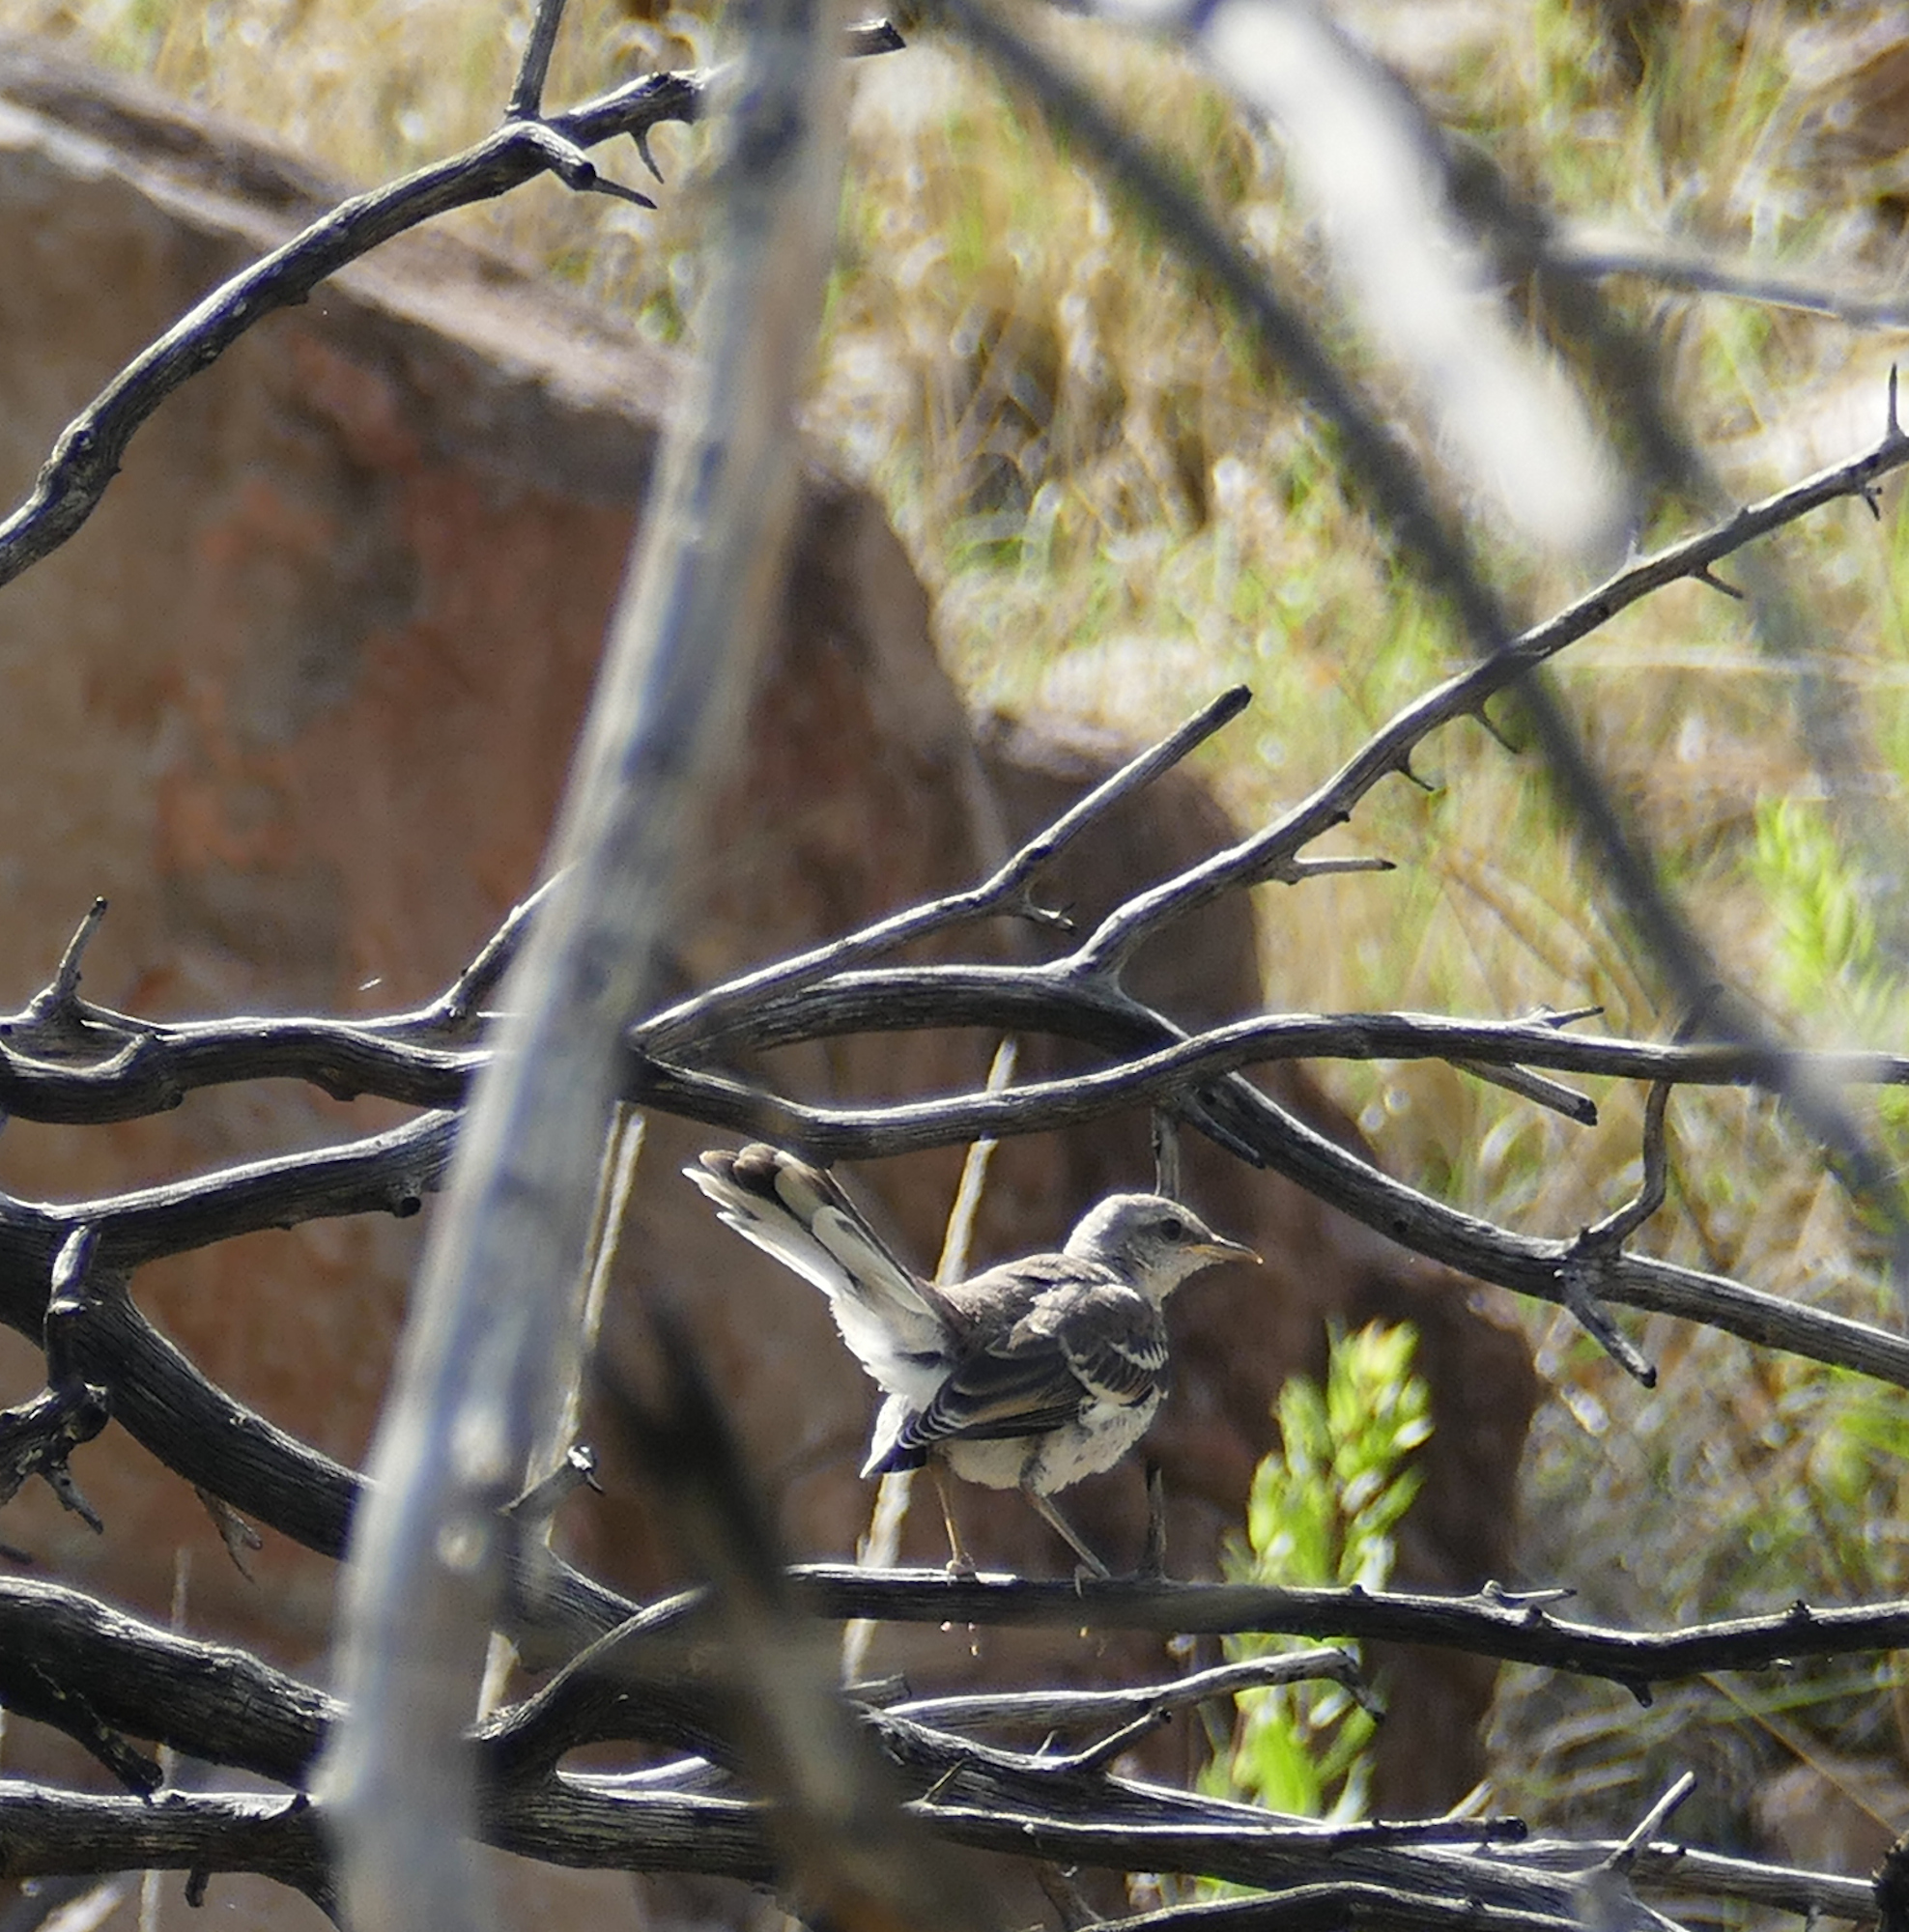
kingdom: Animalia
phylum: Chordata
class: Aves
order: Passeriformes
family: Mimidae
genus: Mimus
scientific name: Mimus polyglottos
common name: Northern mockingbird
